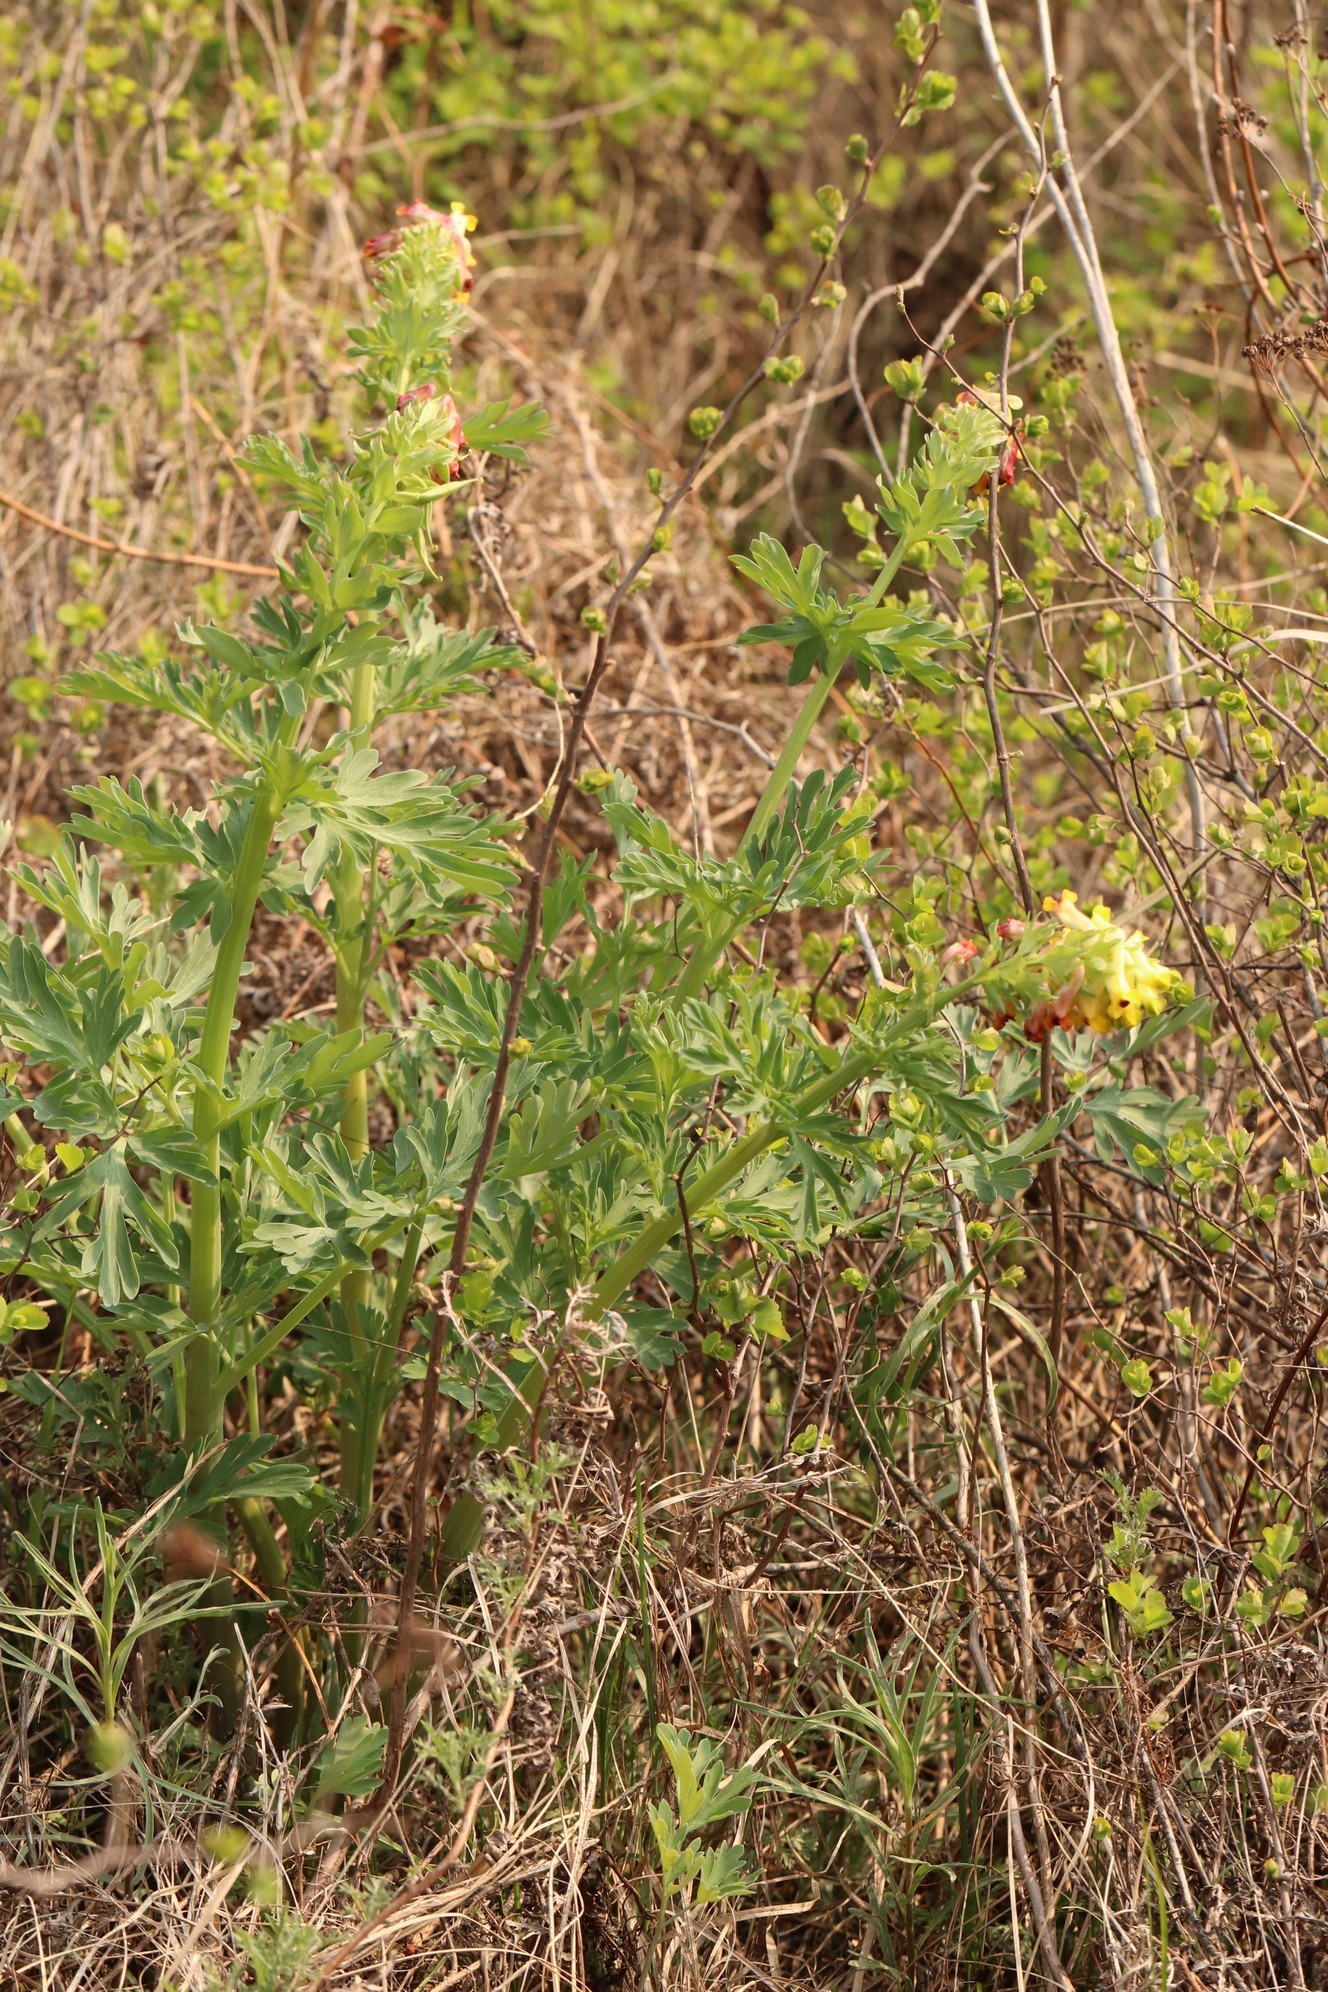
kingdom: Plantae
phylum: Tracheophyta
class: Magnoliopsida
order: Ranunculales
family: Papaveraceae
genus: Corydalis
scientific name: Corydalis nobilis
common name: Siberian corydalis
